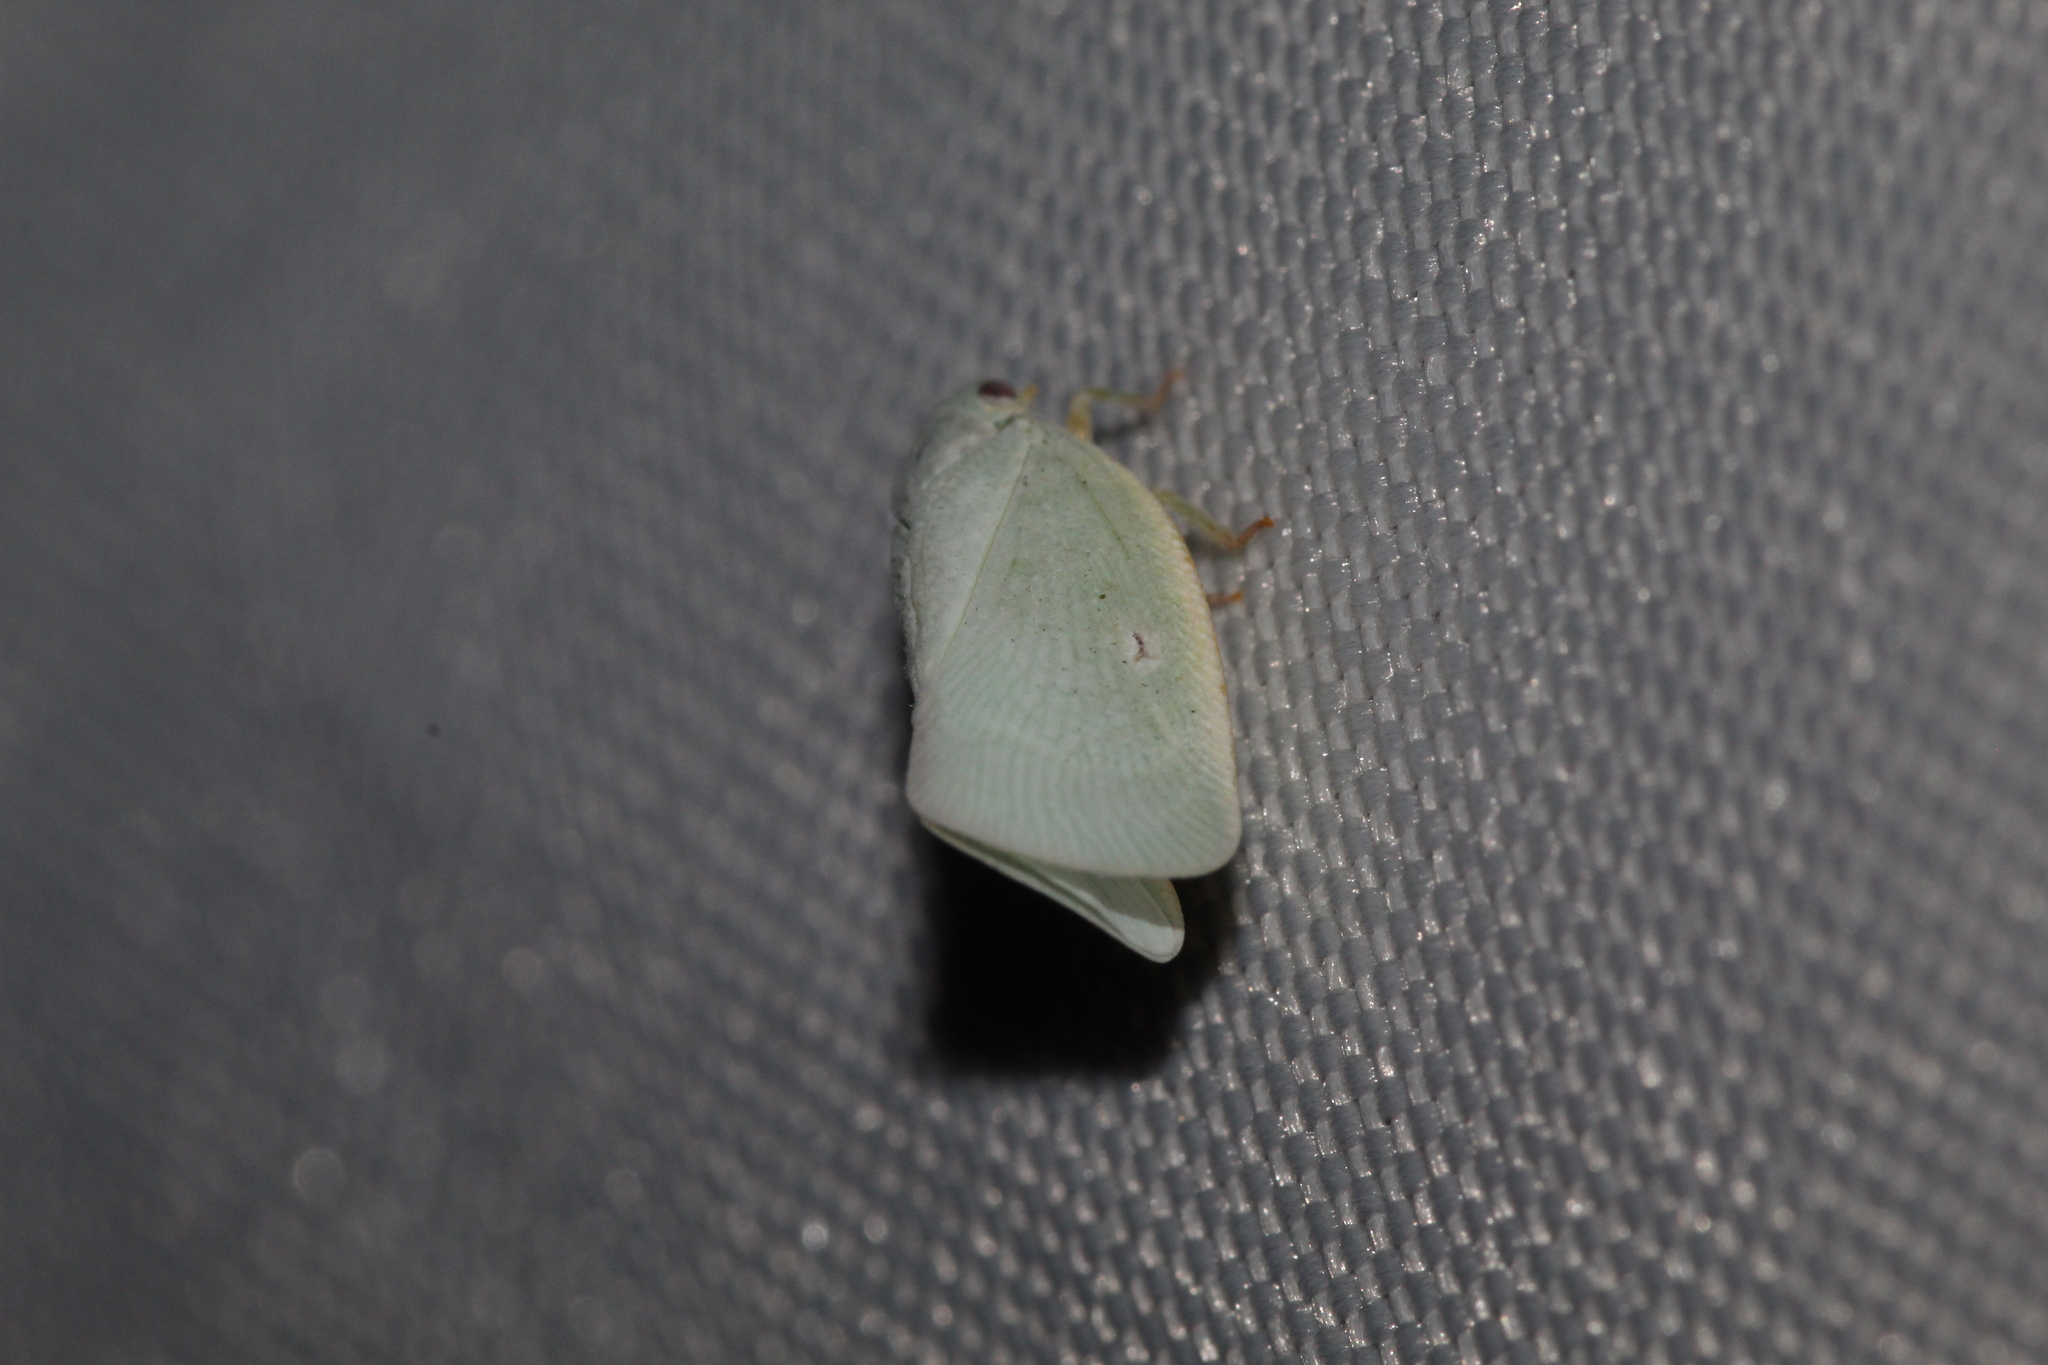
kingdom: Animalia
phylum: Arthropoda
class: Insecta
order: Hemiptera
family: Flatidae
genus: Flatormenis
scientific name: Flatormenis proxima
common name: Northern flatid planthopper
